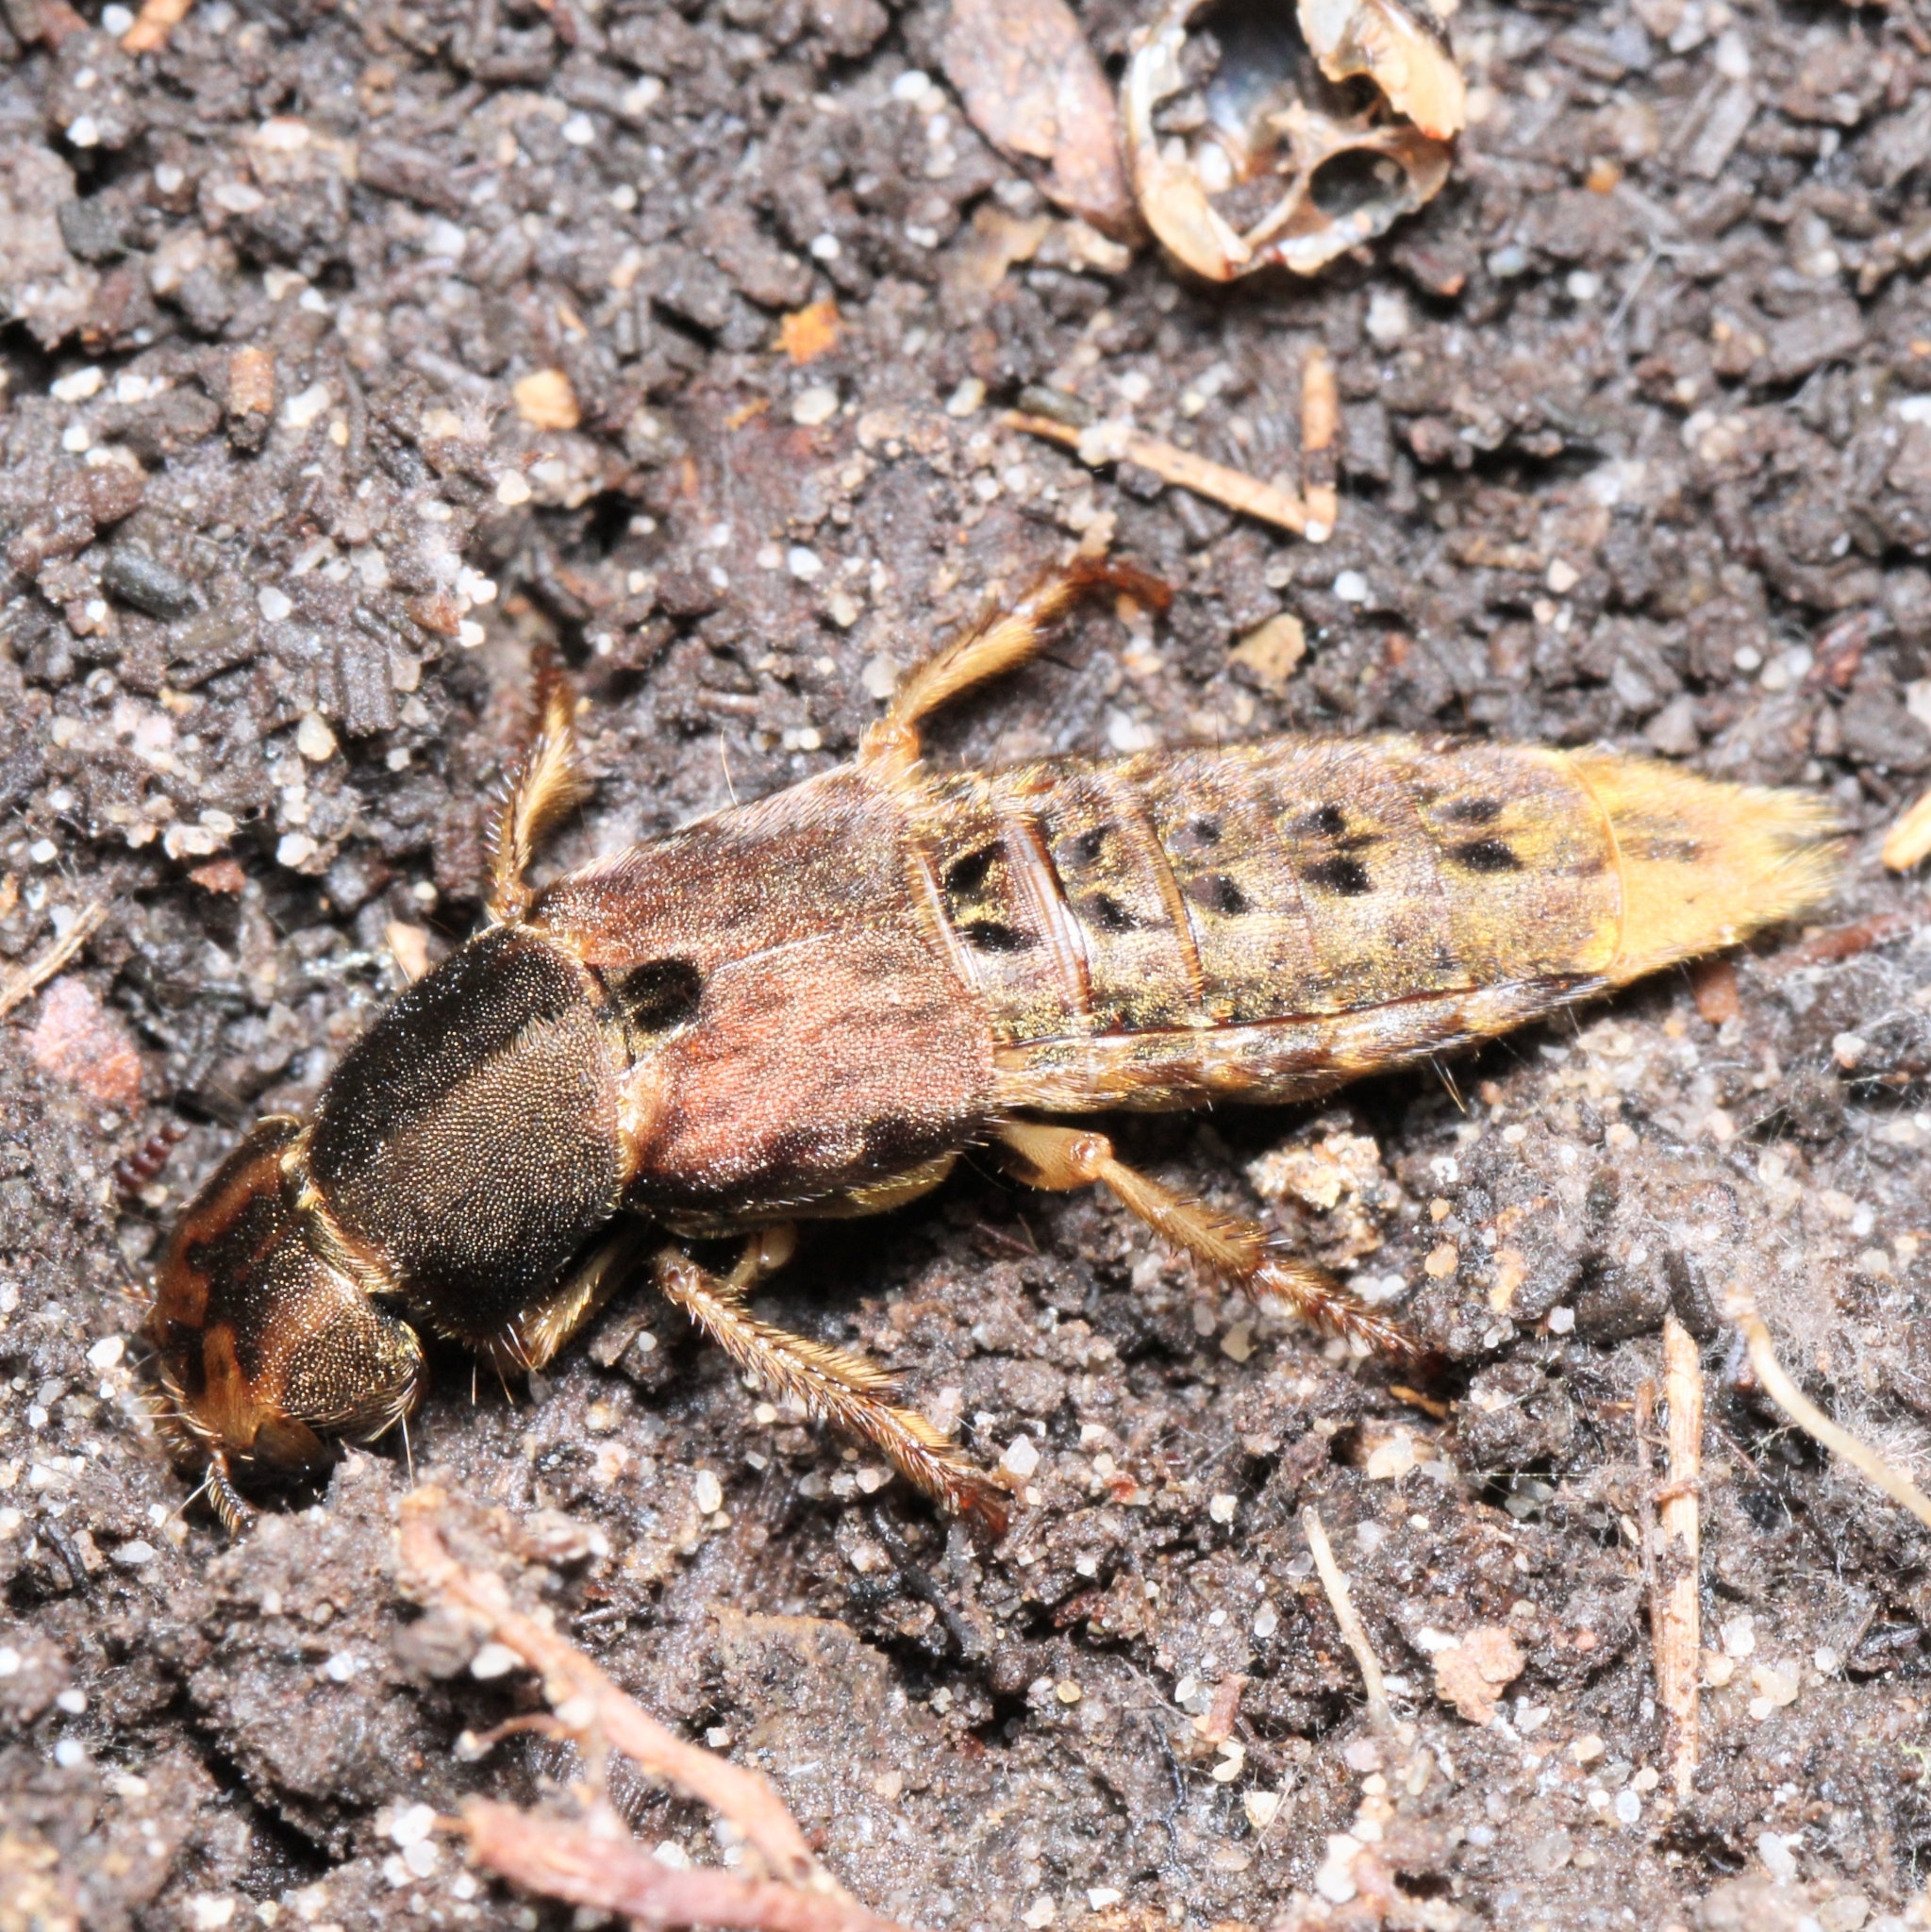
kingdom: Animalia
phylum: Arthropoda
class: Insecta
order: Coleoptera
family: Staphylinidae
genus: Platydracus
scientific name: Platydracus maculosus
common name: Brown rove beetle
